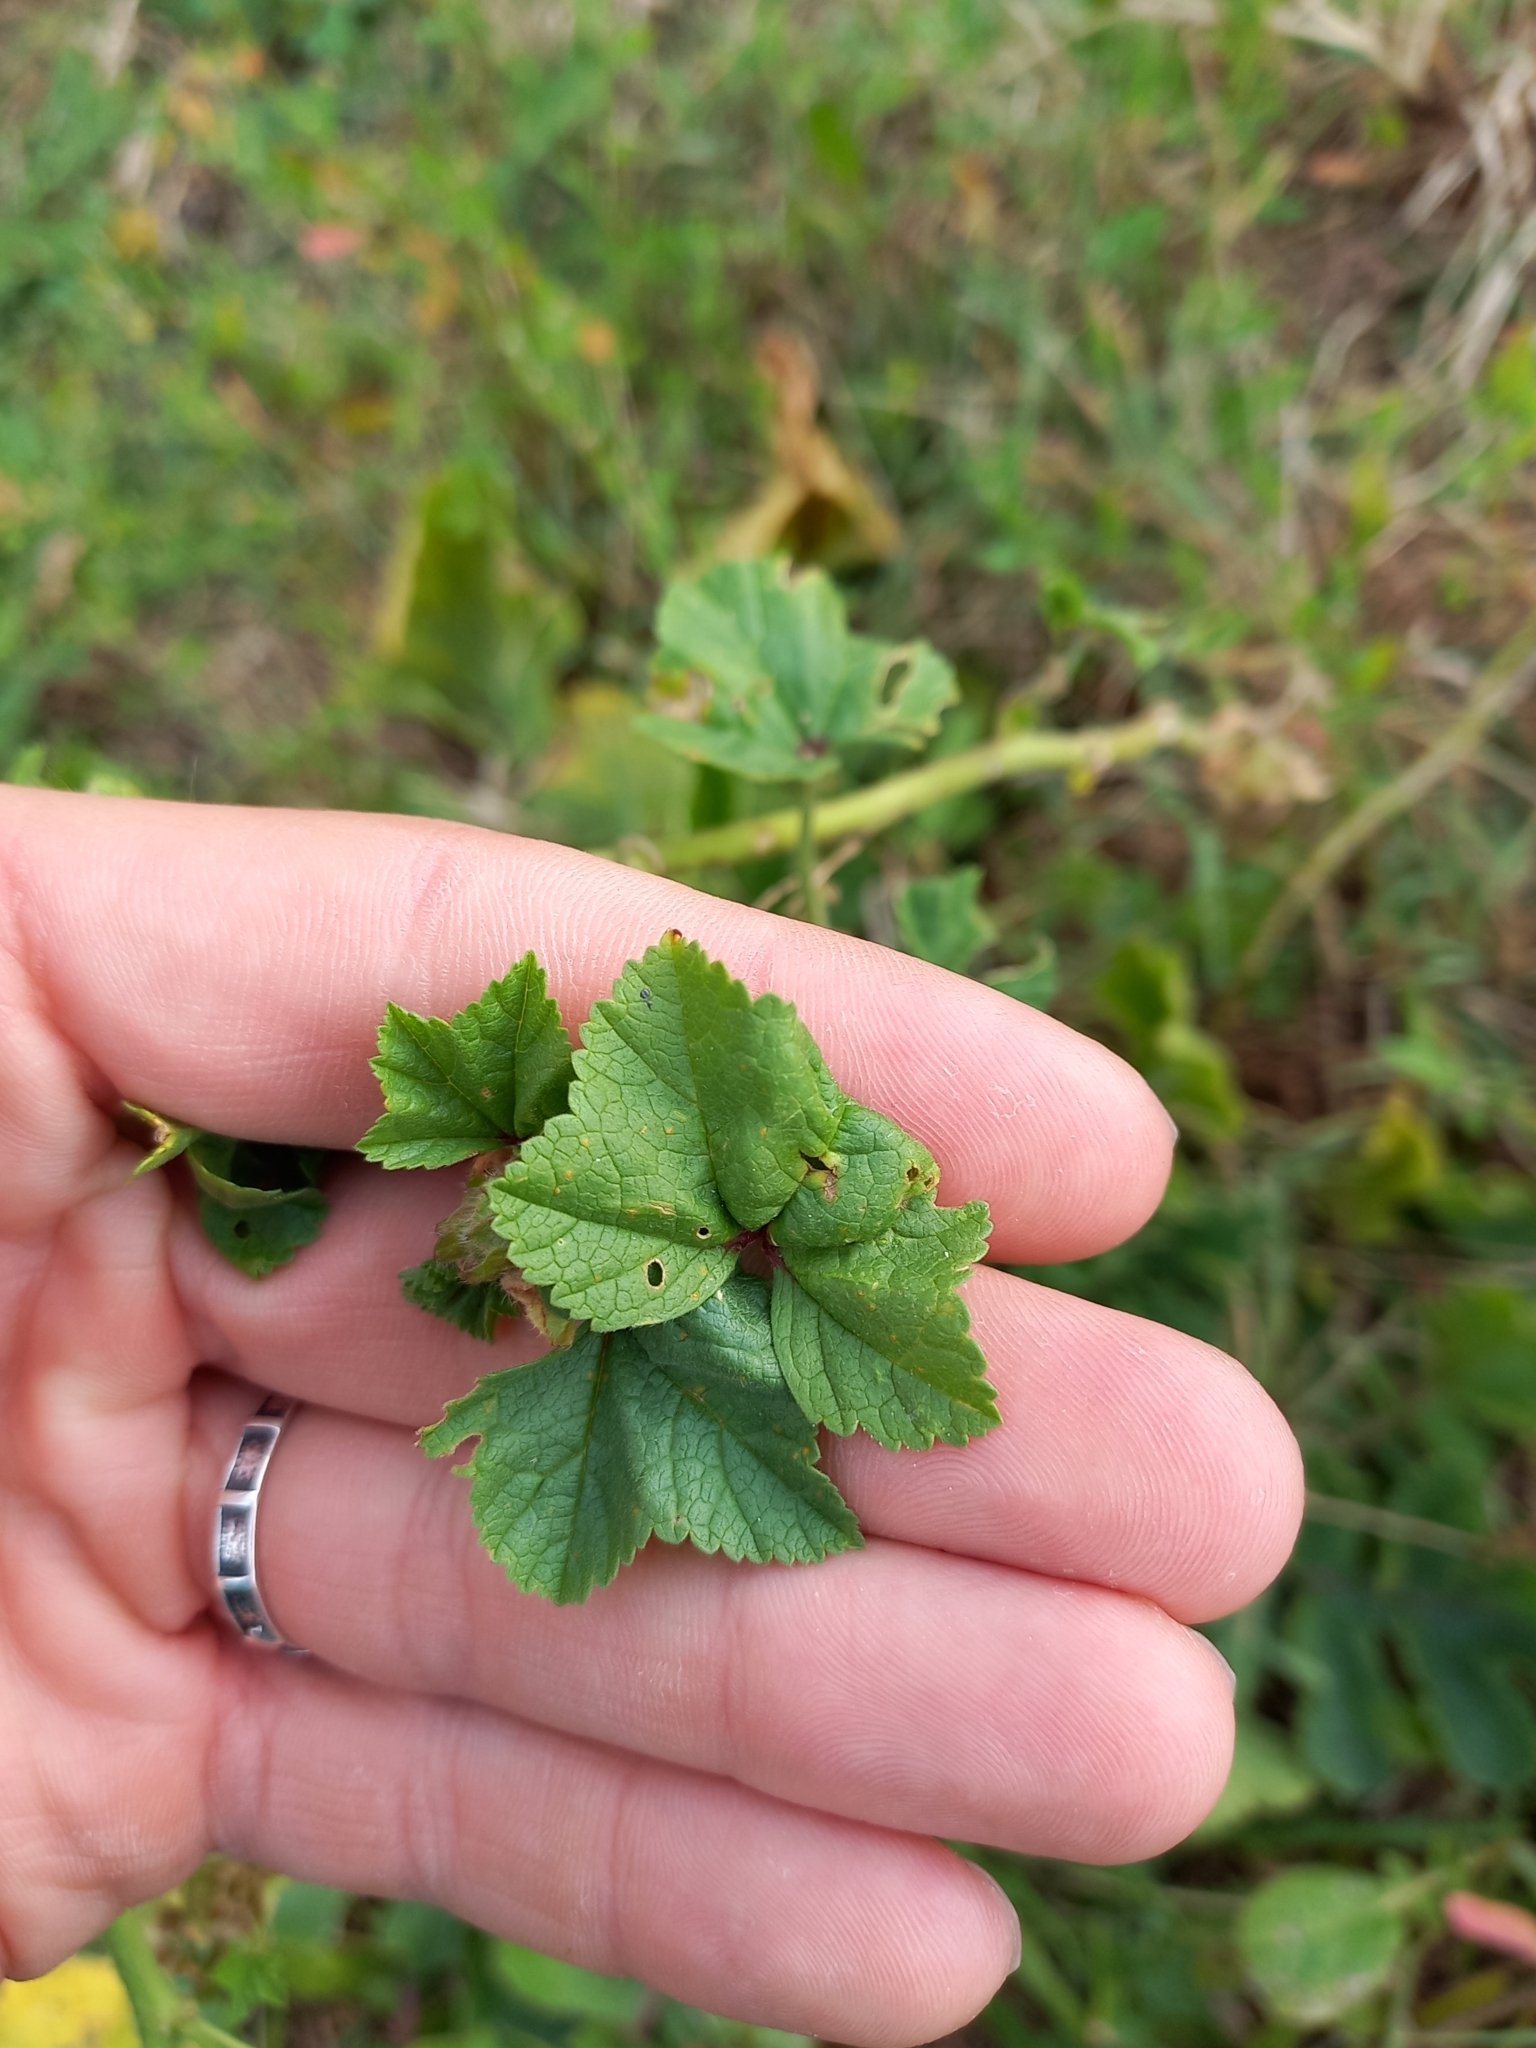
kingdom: Plantae
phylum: Tracheophyta
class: Magnoliopsida
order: Malvales
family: Malvaceae
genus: Malva
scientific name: Malva sylvestris
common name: Common mallow
